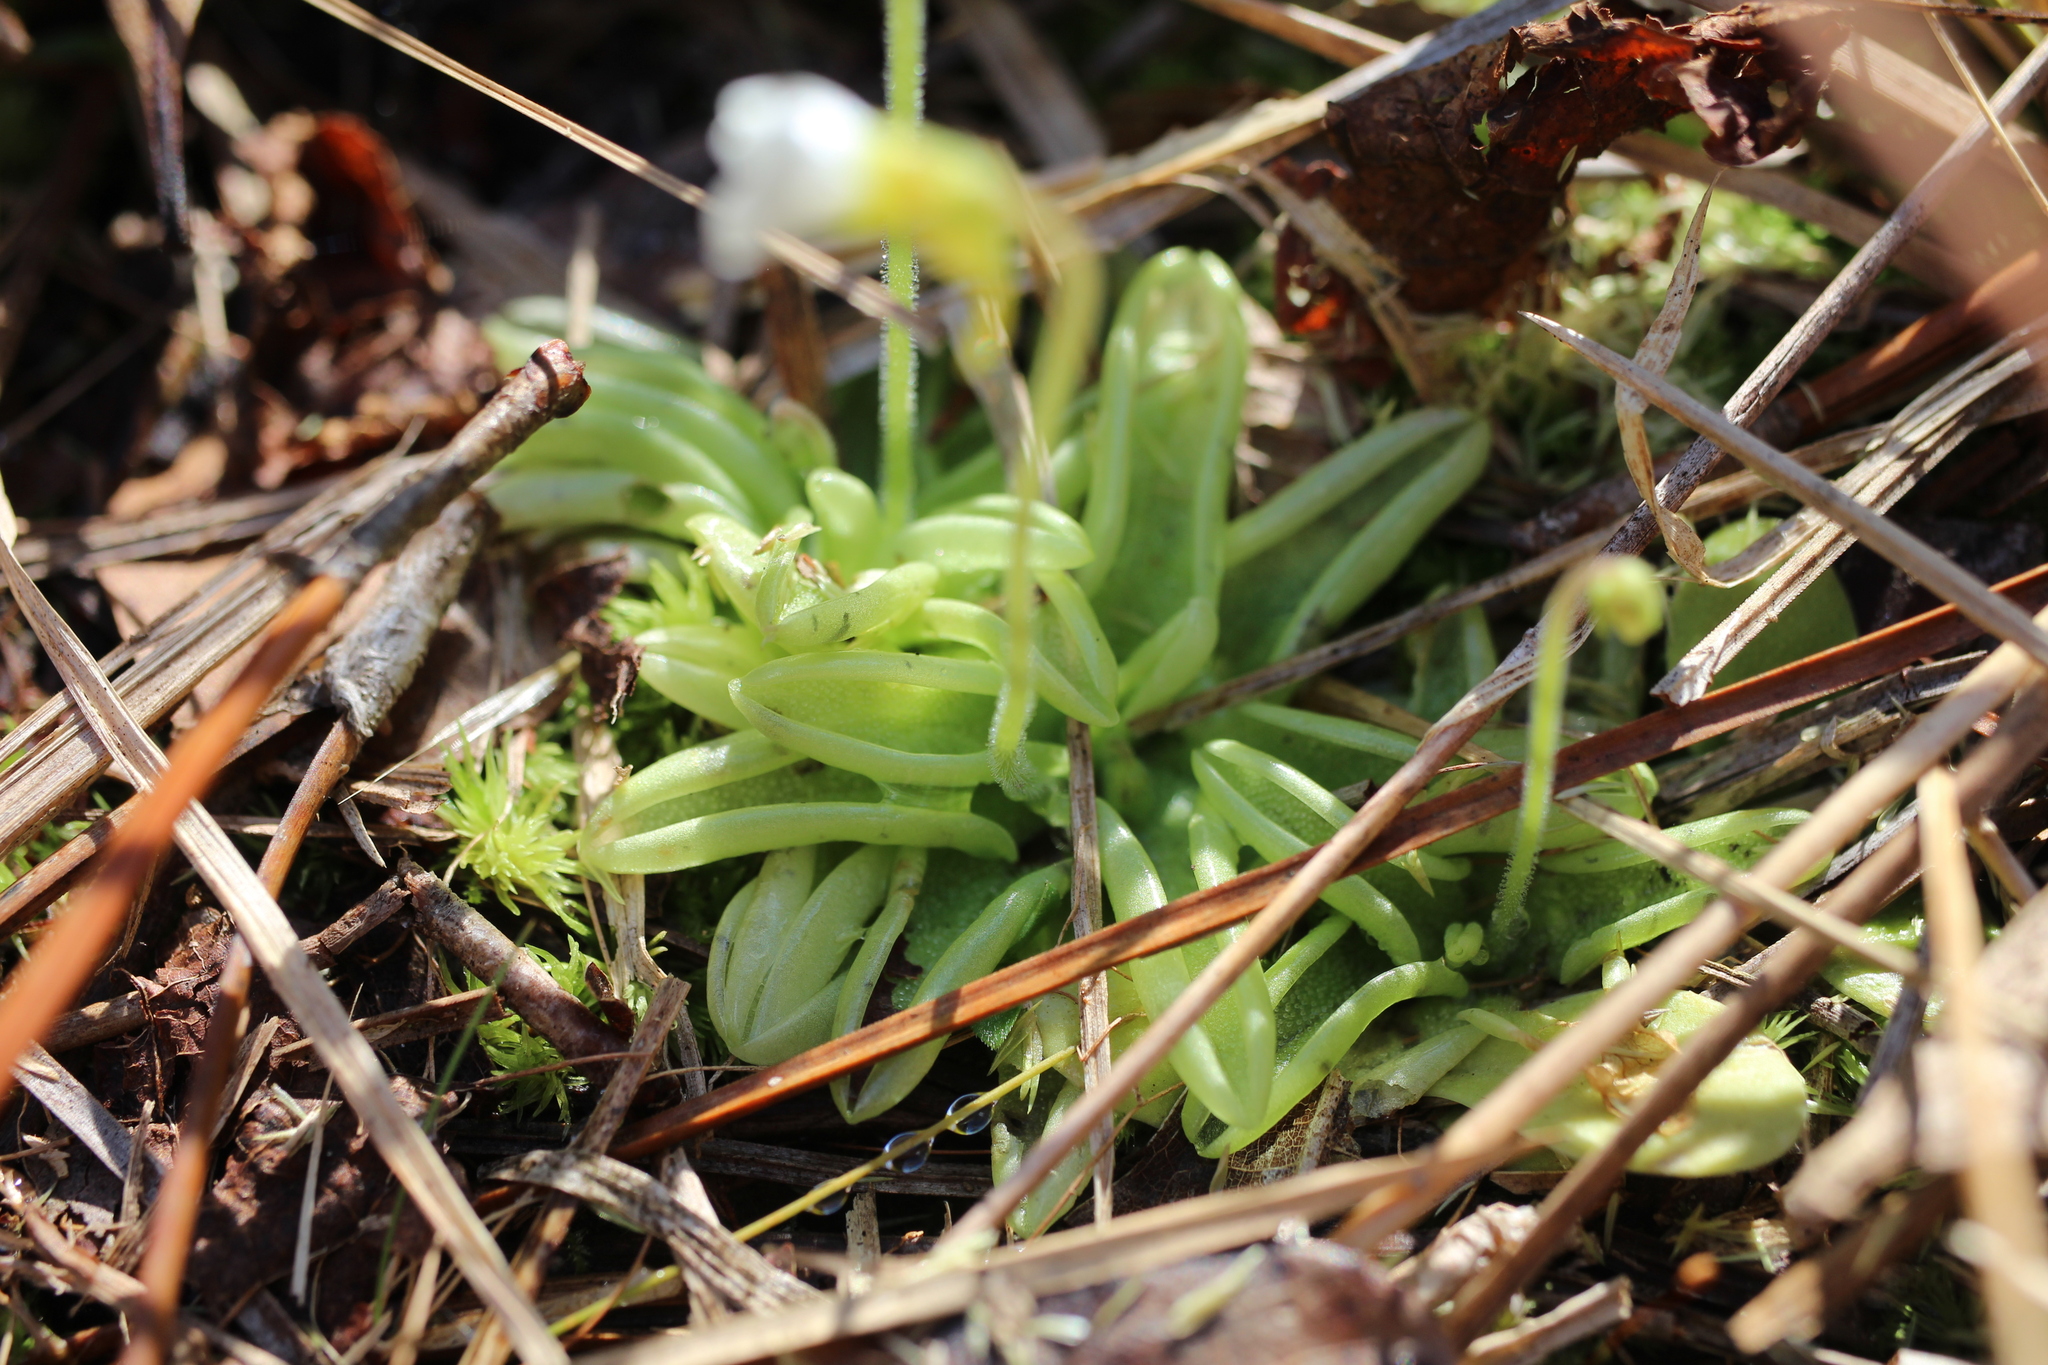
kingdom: Plantae
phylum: Tracheophyta
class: Magnoliopsida
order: Lamiales
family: Lentibulariaceae
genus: Pinguicula
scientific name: Pinguicula pumila
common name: Small butterwort
